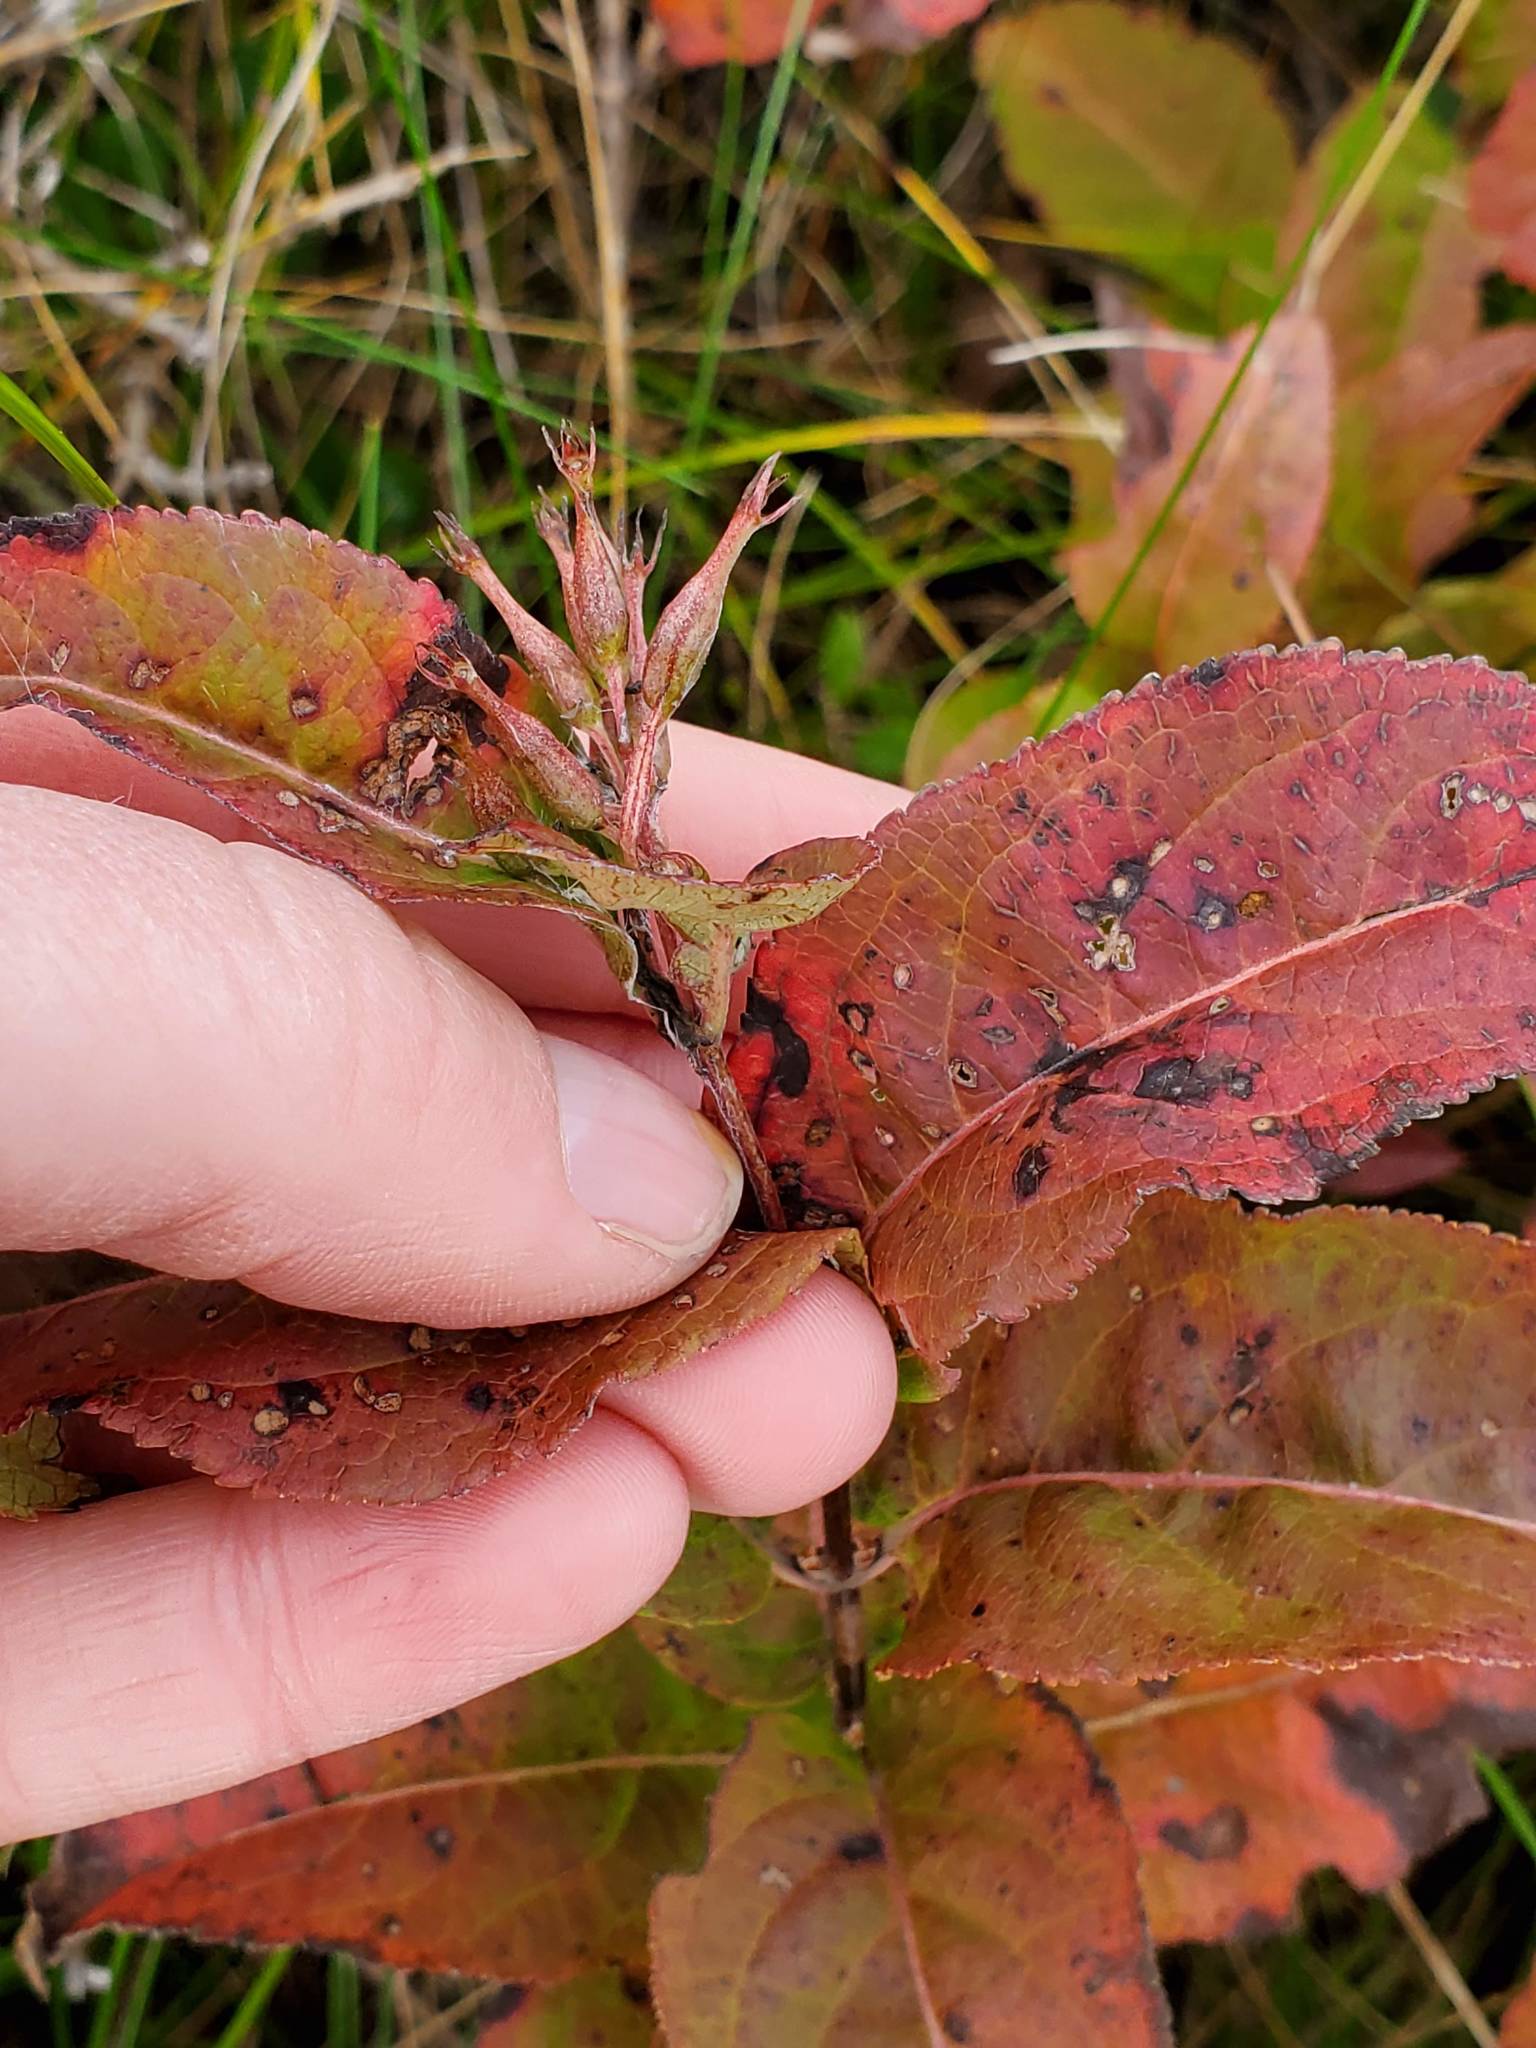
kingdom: Plantae
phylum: Tracheophyta
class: Magnoliopsida
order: Dipsacales
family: Caprifoliaceae
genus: Diervilla
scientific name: Diervilla lonicera
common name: Bush-honeysuckle
